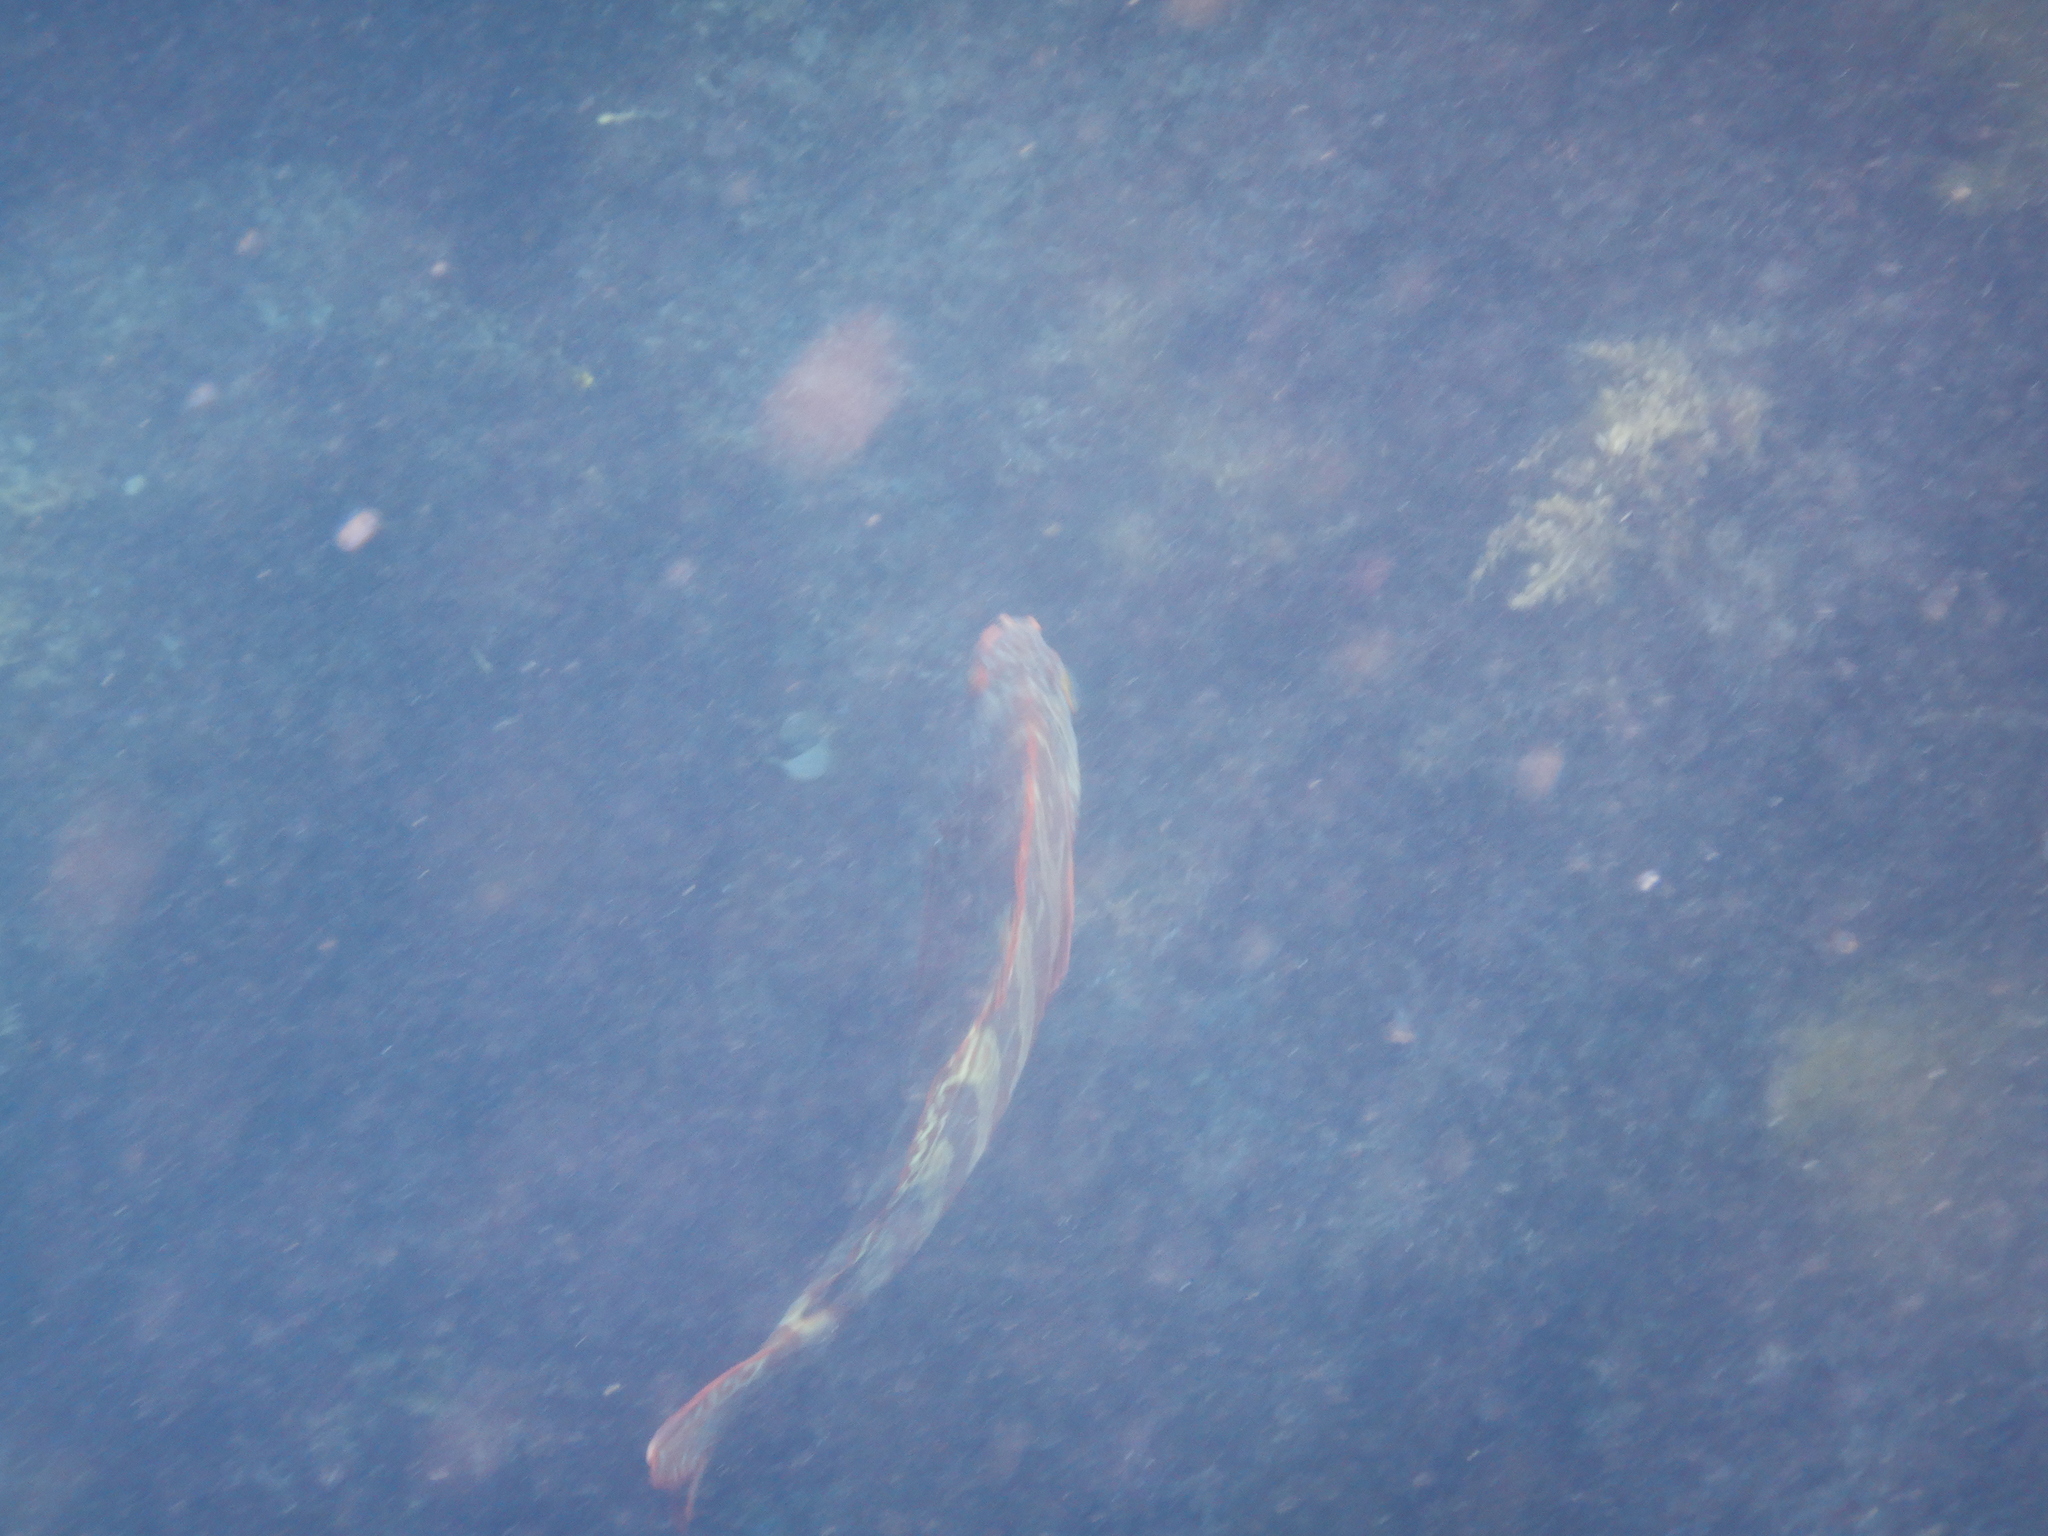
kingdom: Animalia
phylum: Chordata
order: Perciformes
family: Cheilodactylidae
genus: Cheilodactylus
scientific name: Cheilodactylus rubrolabiatus
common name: Redlip morwong
